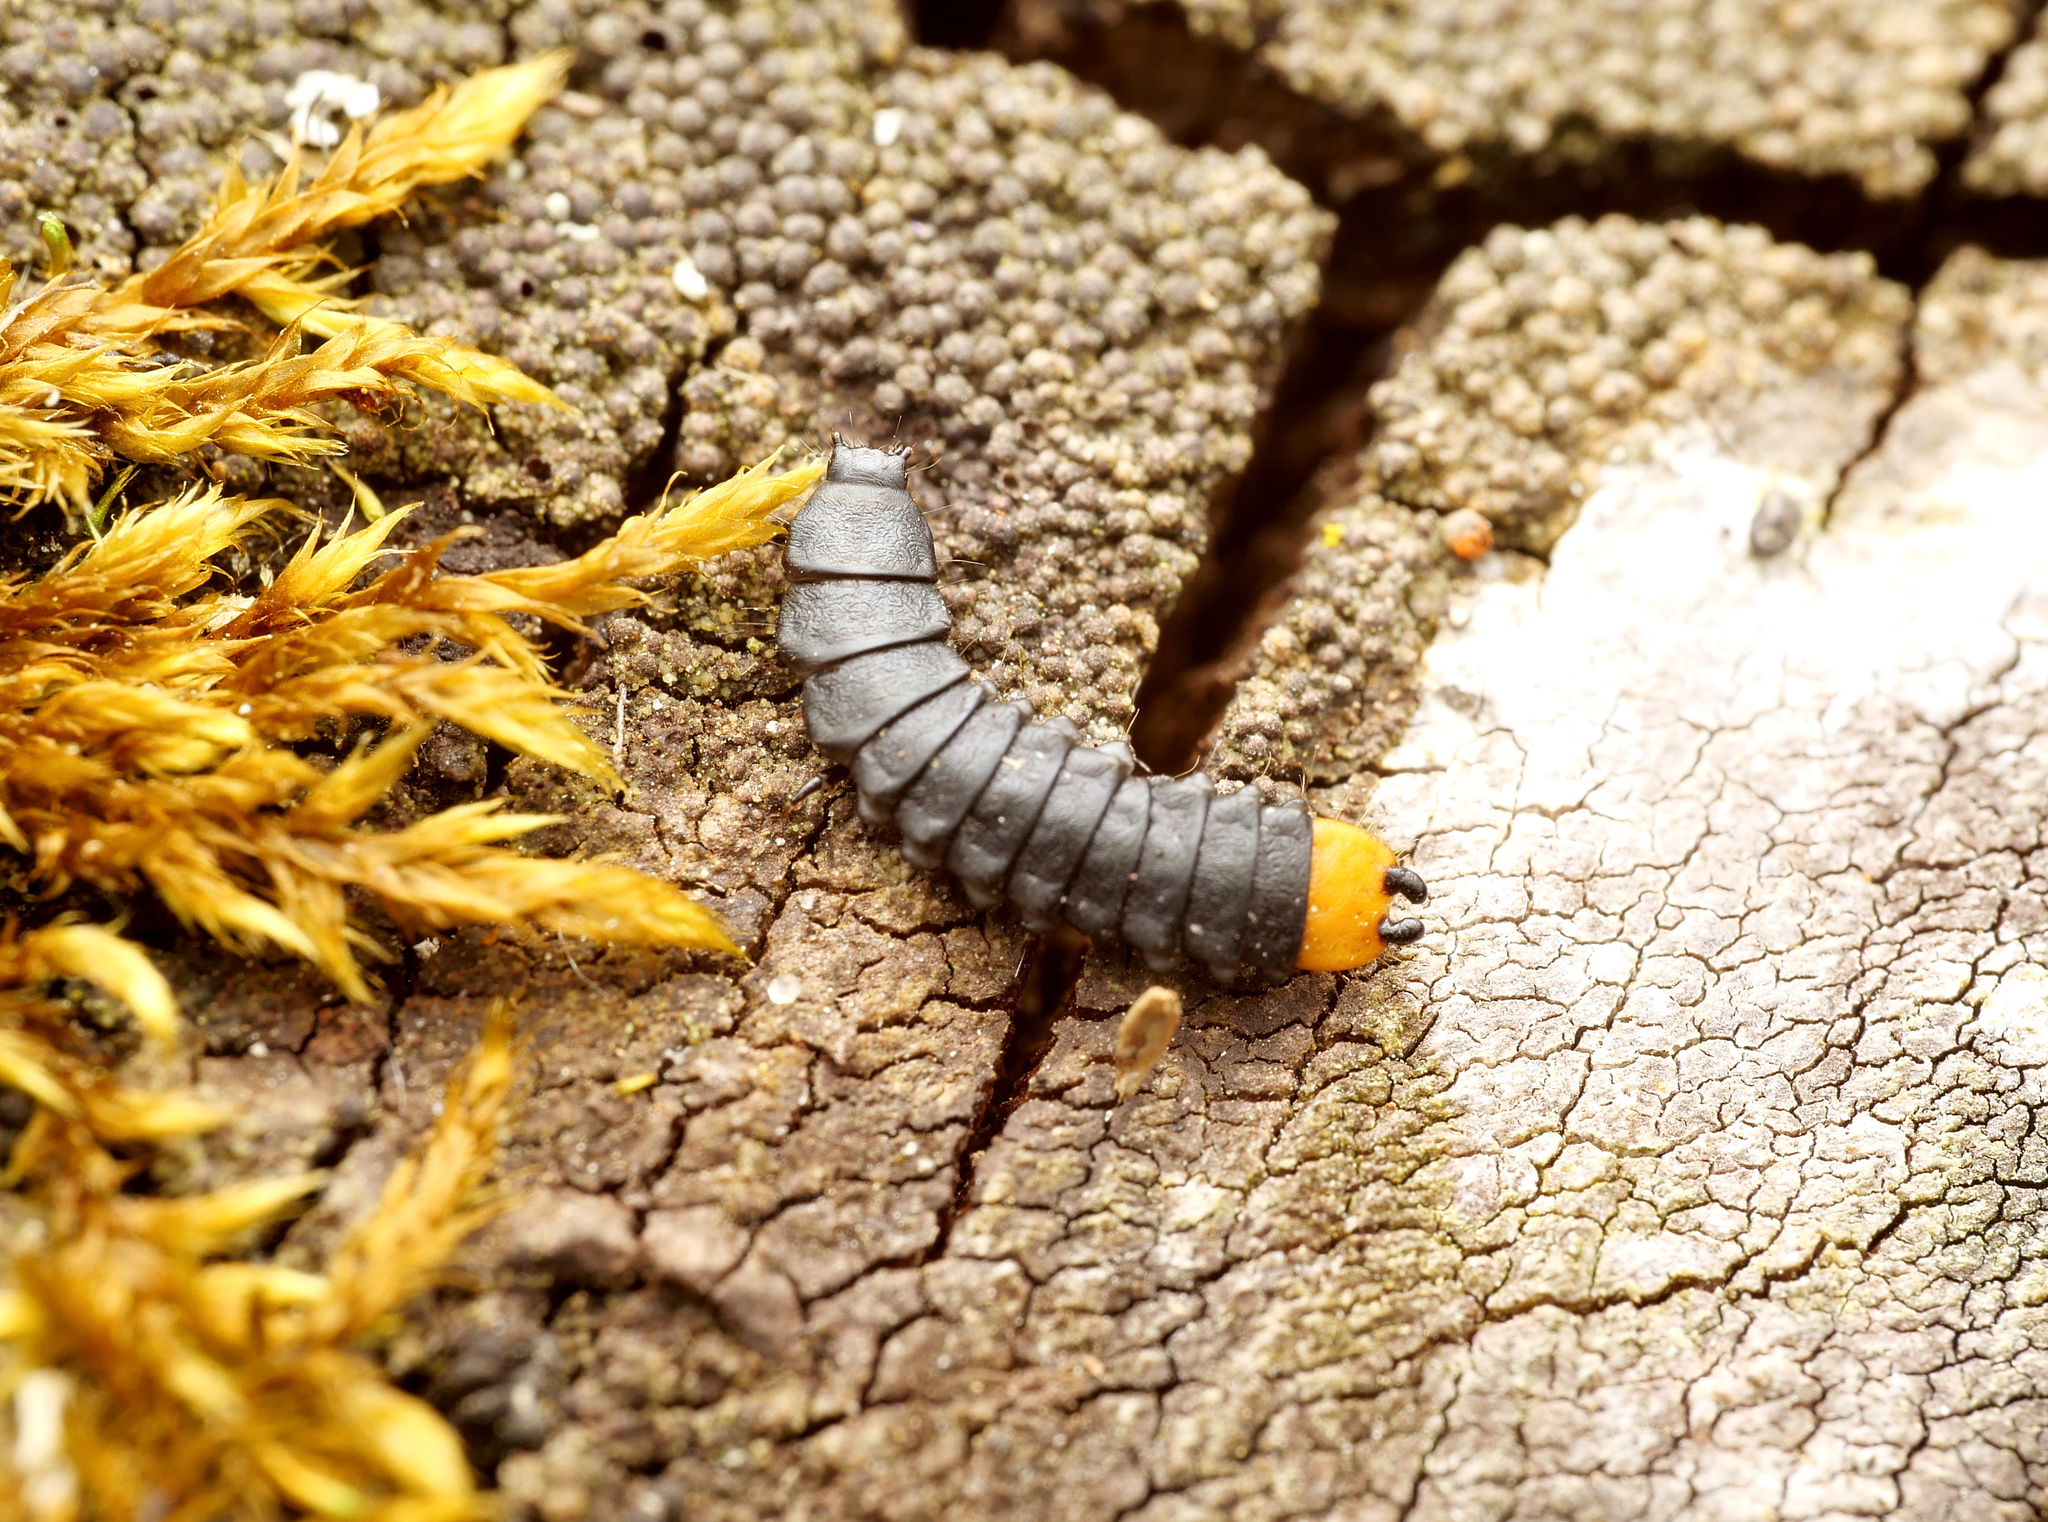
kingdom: Animalia
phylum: Arthropoda
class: Insecta
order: Coleoptera
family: Lycidae
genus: Lygistopterus
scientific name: Lygistopterus sanguineus
